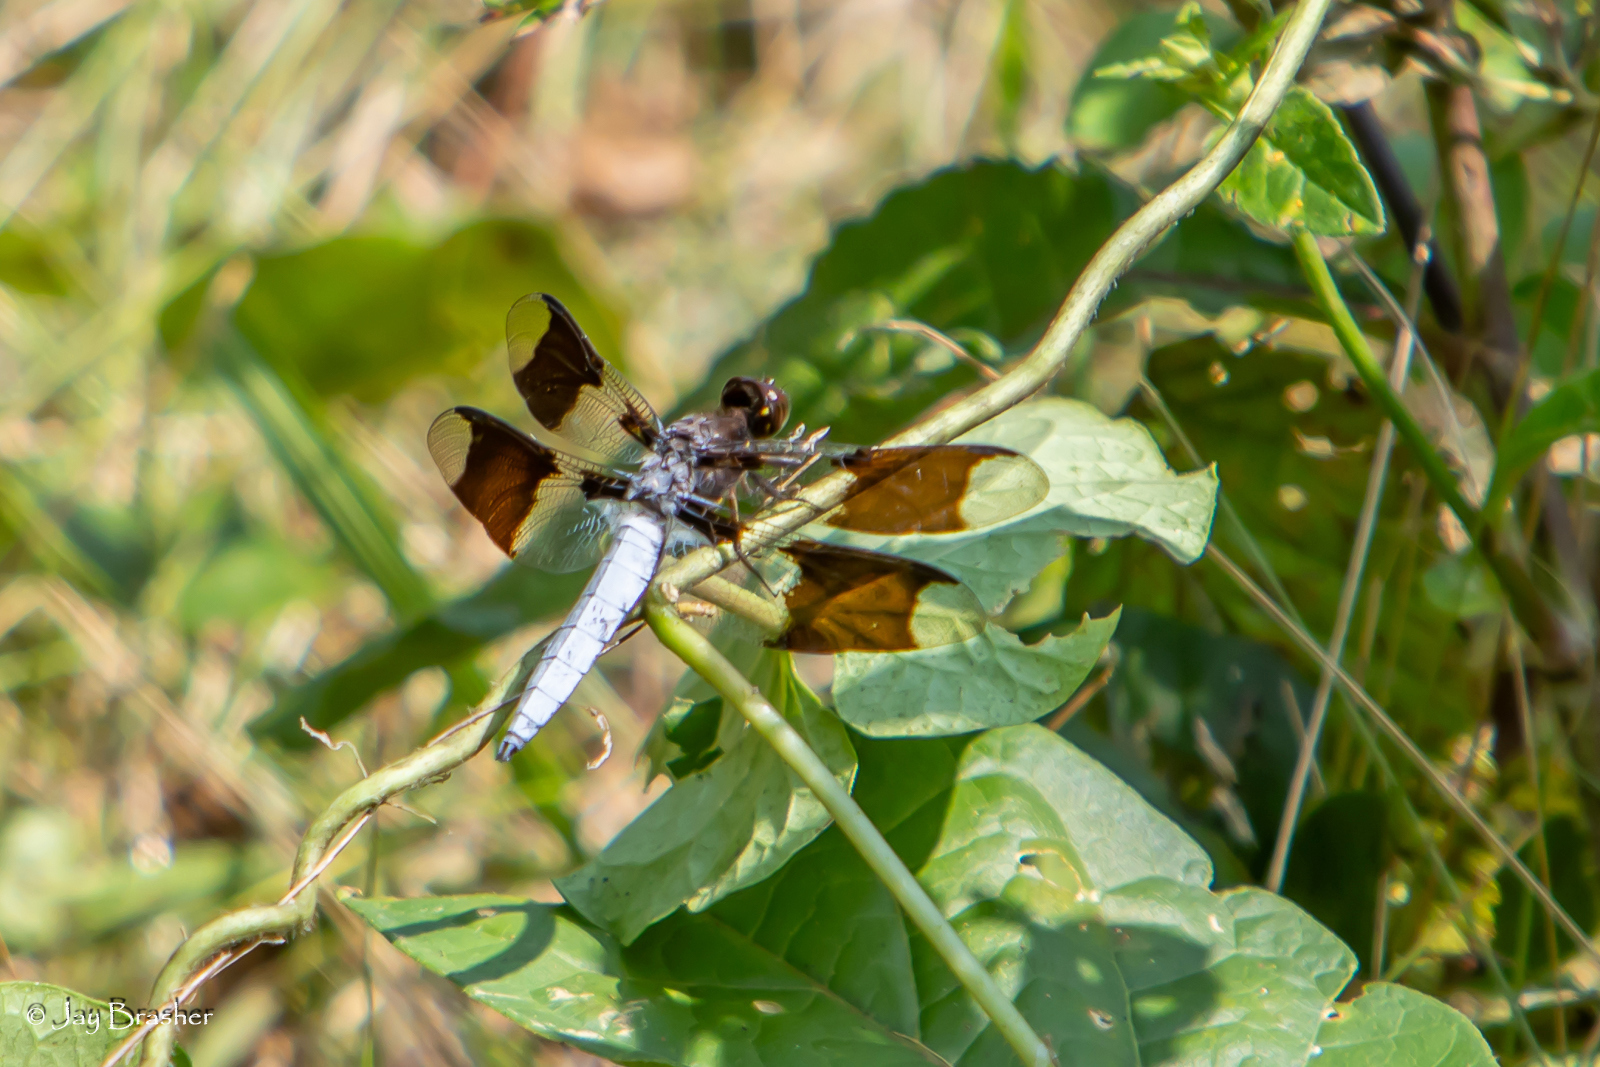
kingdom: Animalia
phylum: Arthropoda
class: Insecta
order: Odonata
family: Libellulidae
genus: Plathemis
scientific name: Plathemis lydia
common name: Common whitetail
